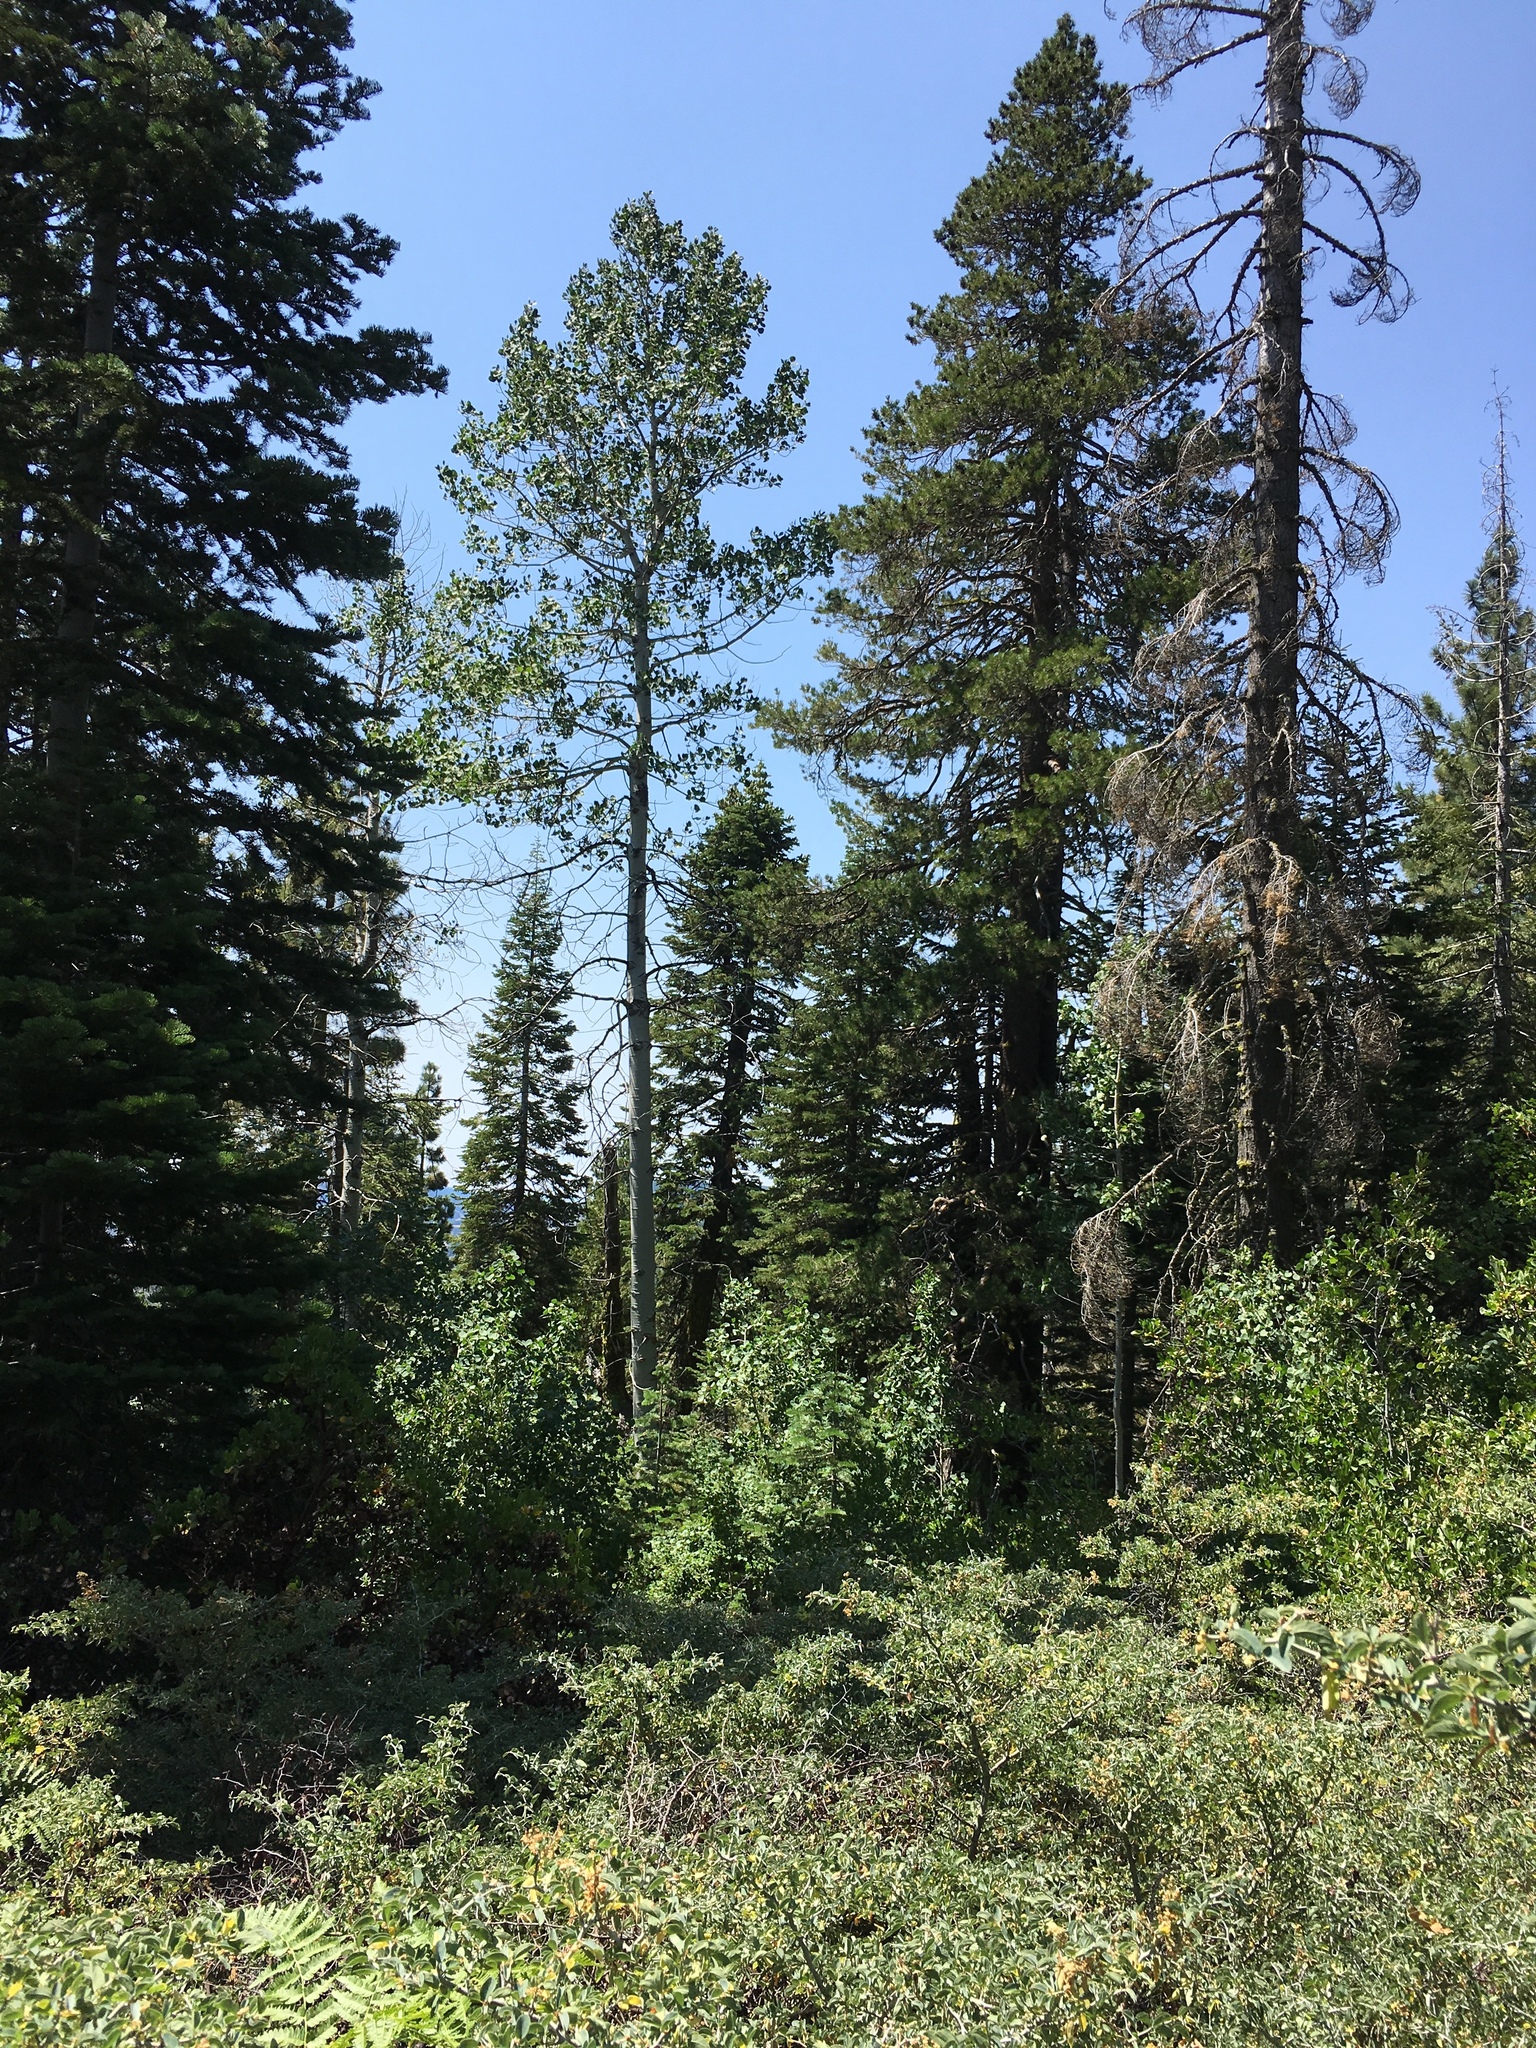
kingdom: Plantae
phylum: Tracheophyta
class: Magnoliopsida
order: Malpighiales
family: Salicaceae
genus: Populus
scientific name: Populus tremuloides
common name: Quaking aspen
